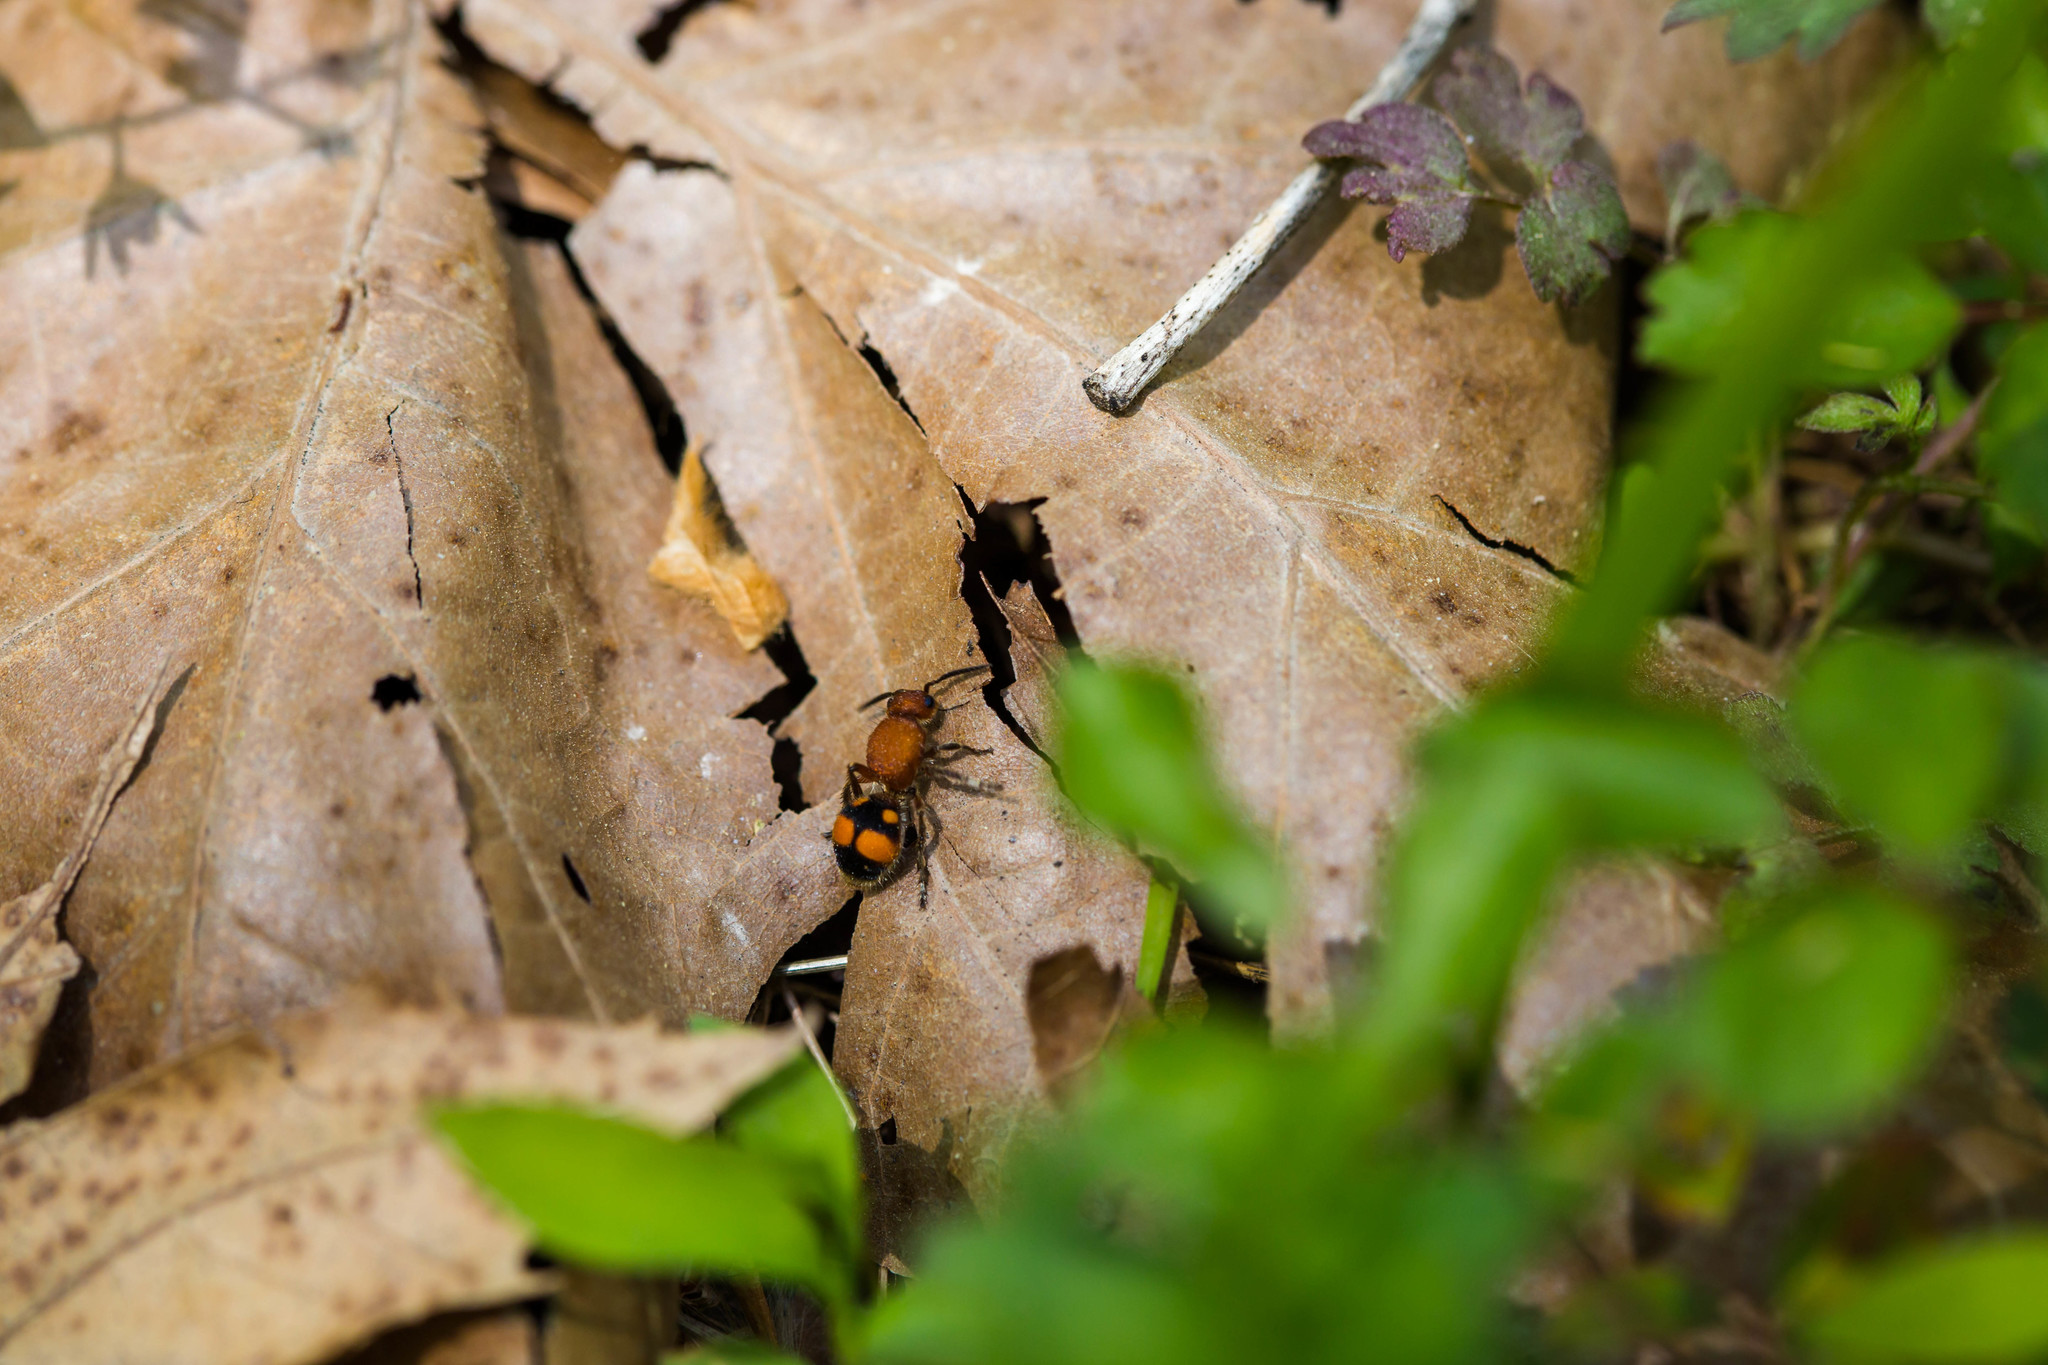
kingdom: Animalia
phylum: Arthropoda
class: Insecta
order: Hymenoptera
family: Mutillidae
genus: Dasymutilla
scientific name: Dasymutilla
